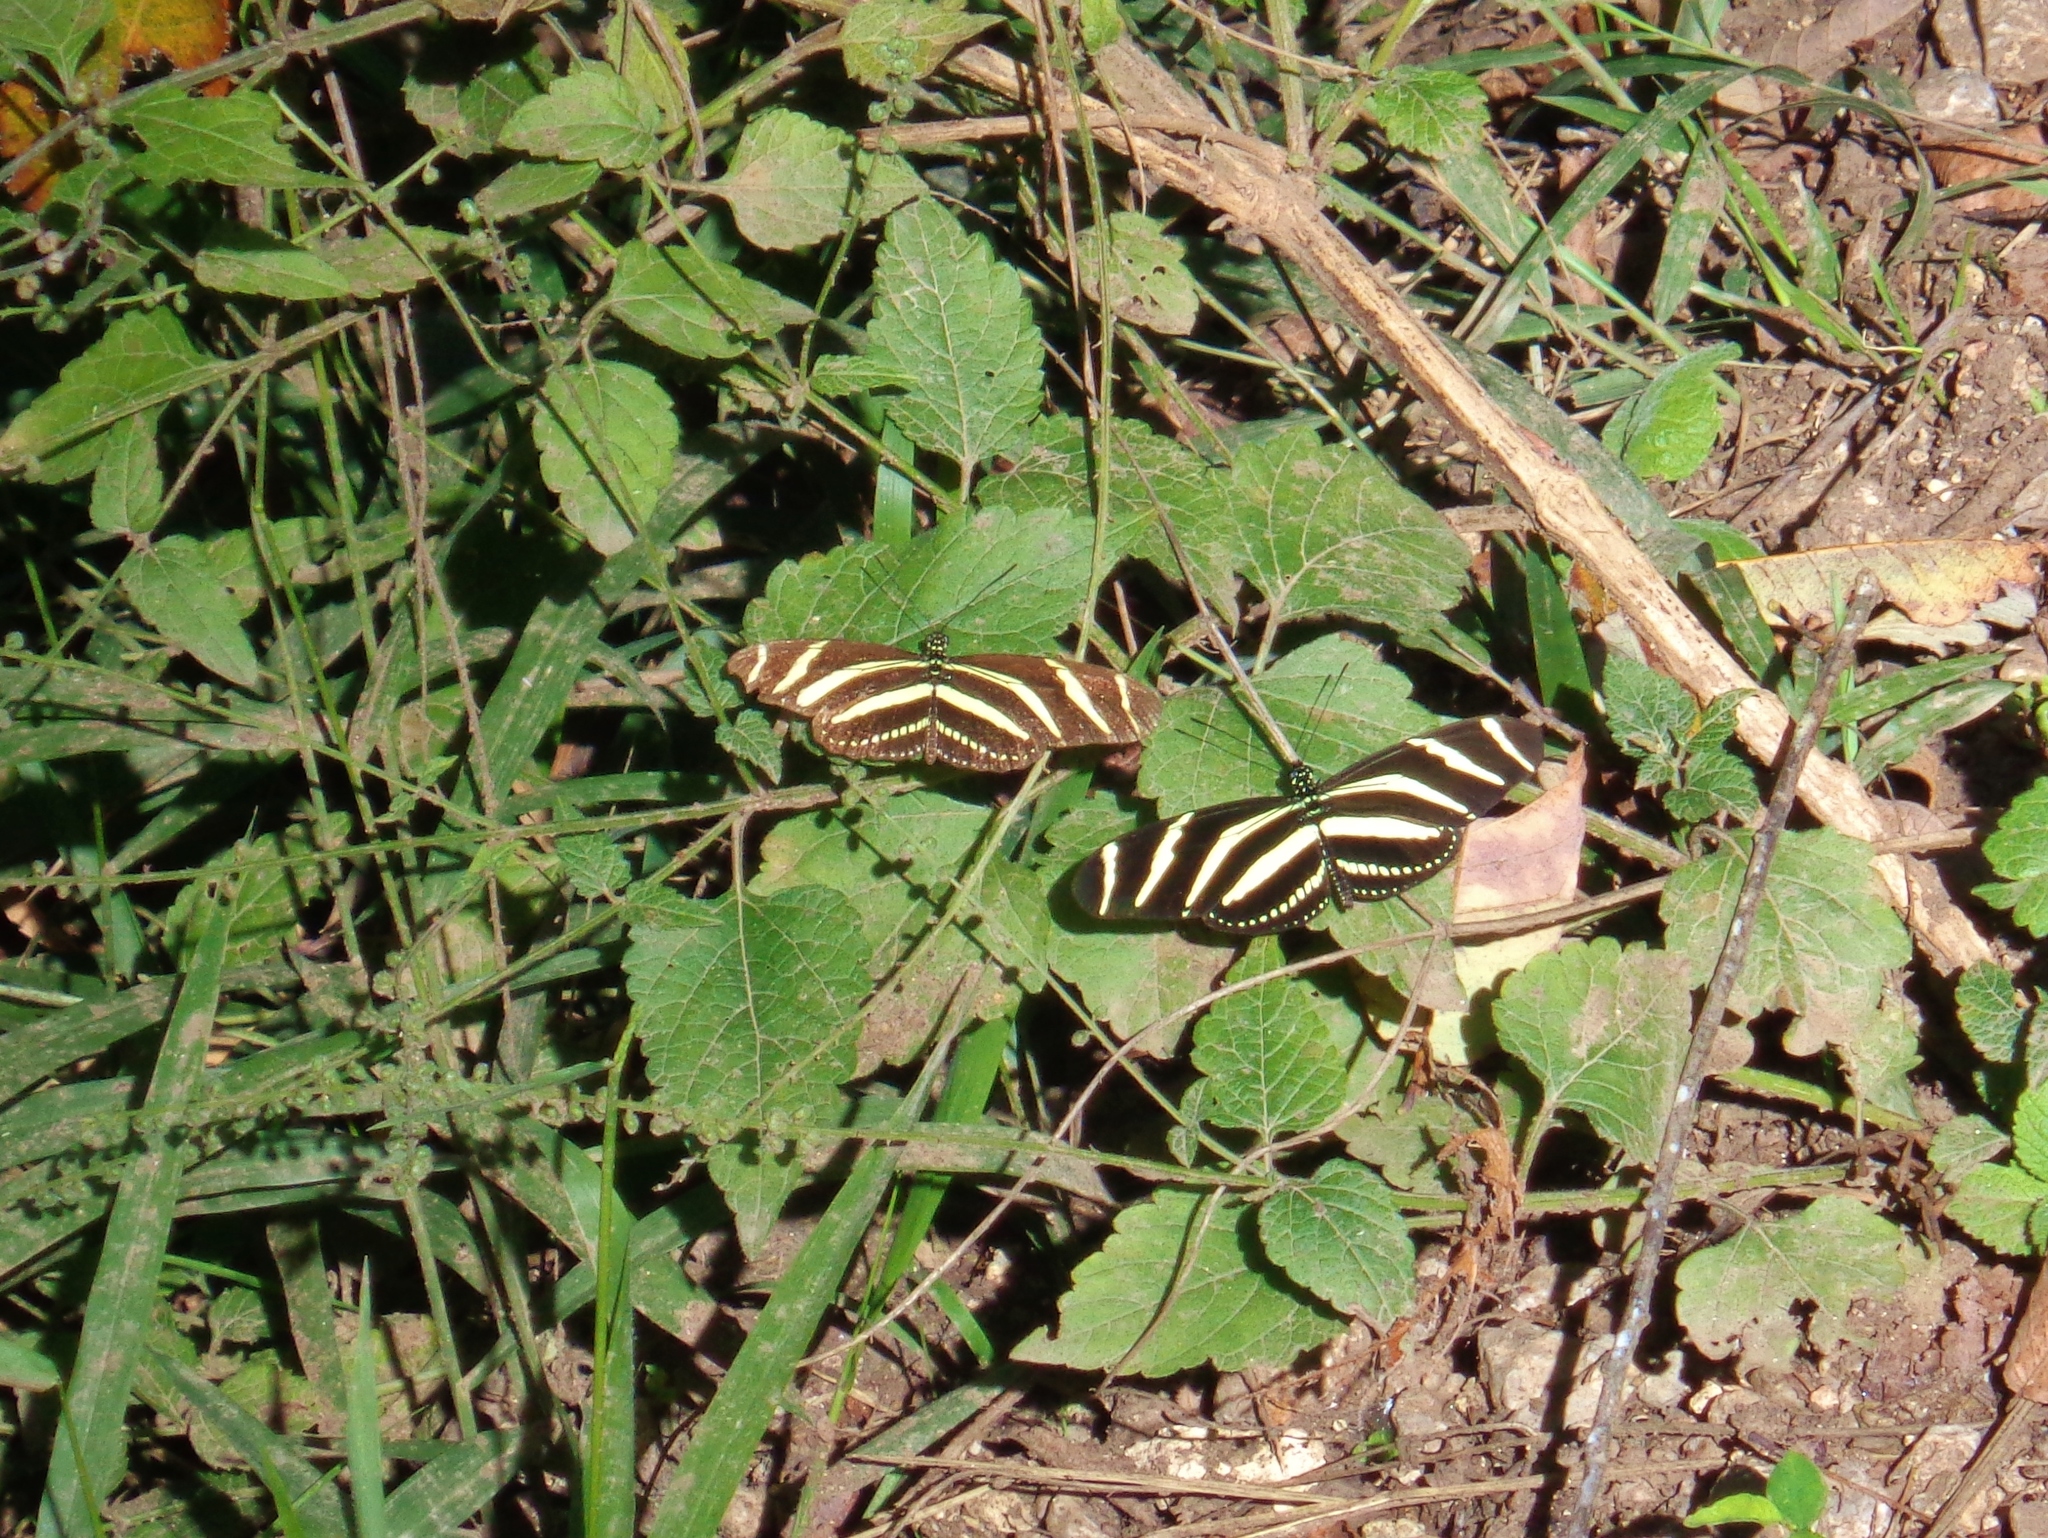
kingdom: Animalia
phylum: Arthropoda
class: Insecta
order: Lepidoptera
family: Nymphalidae
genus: Heliconius
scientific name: Heliconius charithonia
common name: Zebra long wing
